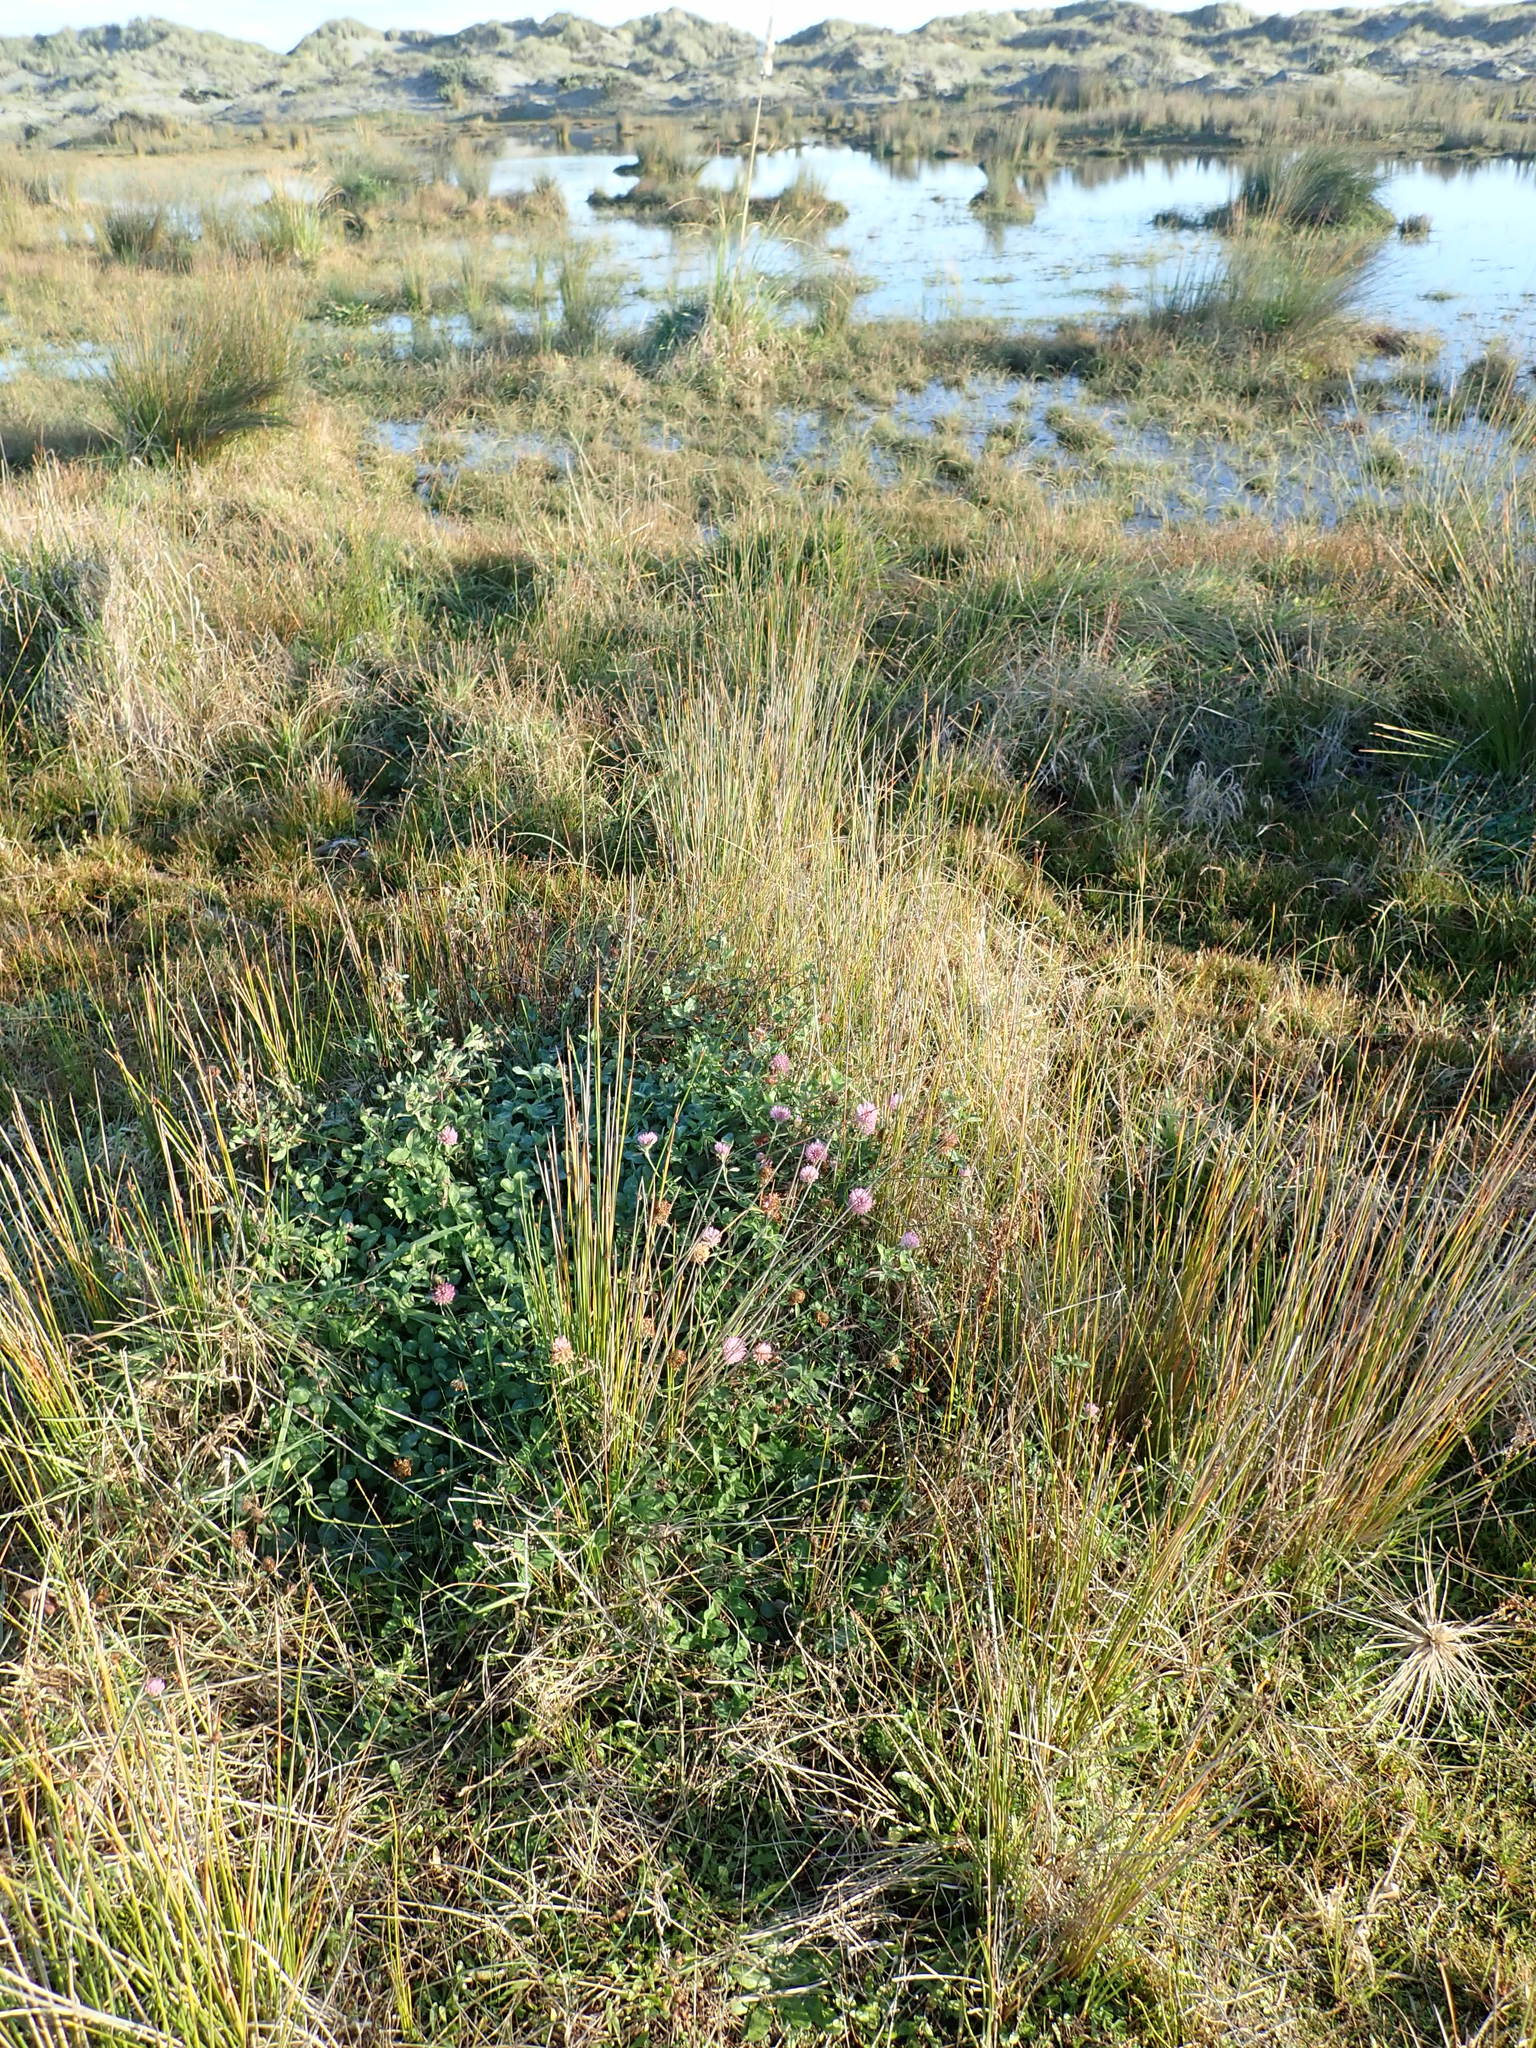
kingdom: Plantae
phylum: Tracheophyta
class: Magnoliopsida
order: Fabales
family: Fabaceae
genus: Trifolium
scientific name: Trifolium pratense
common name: Red clover
